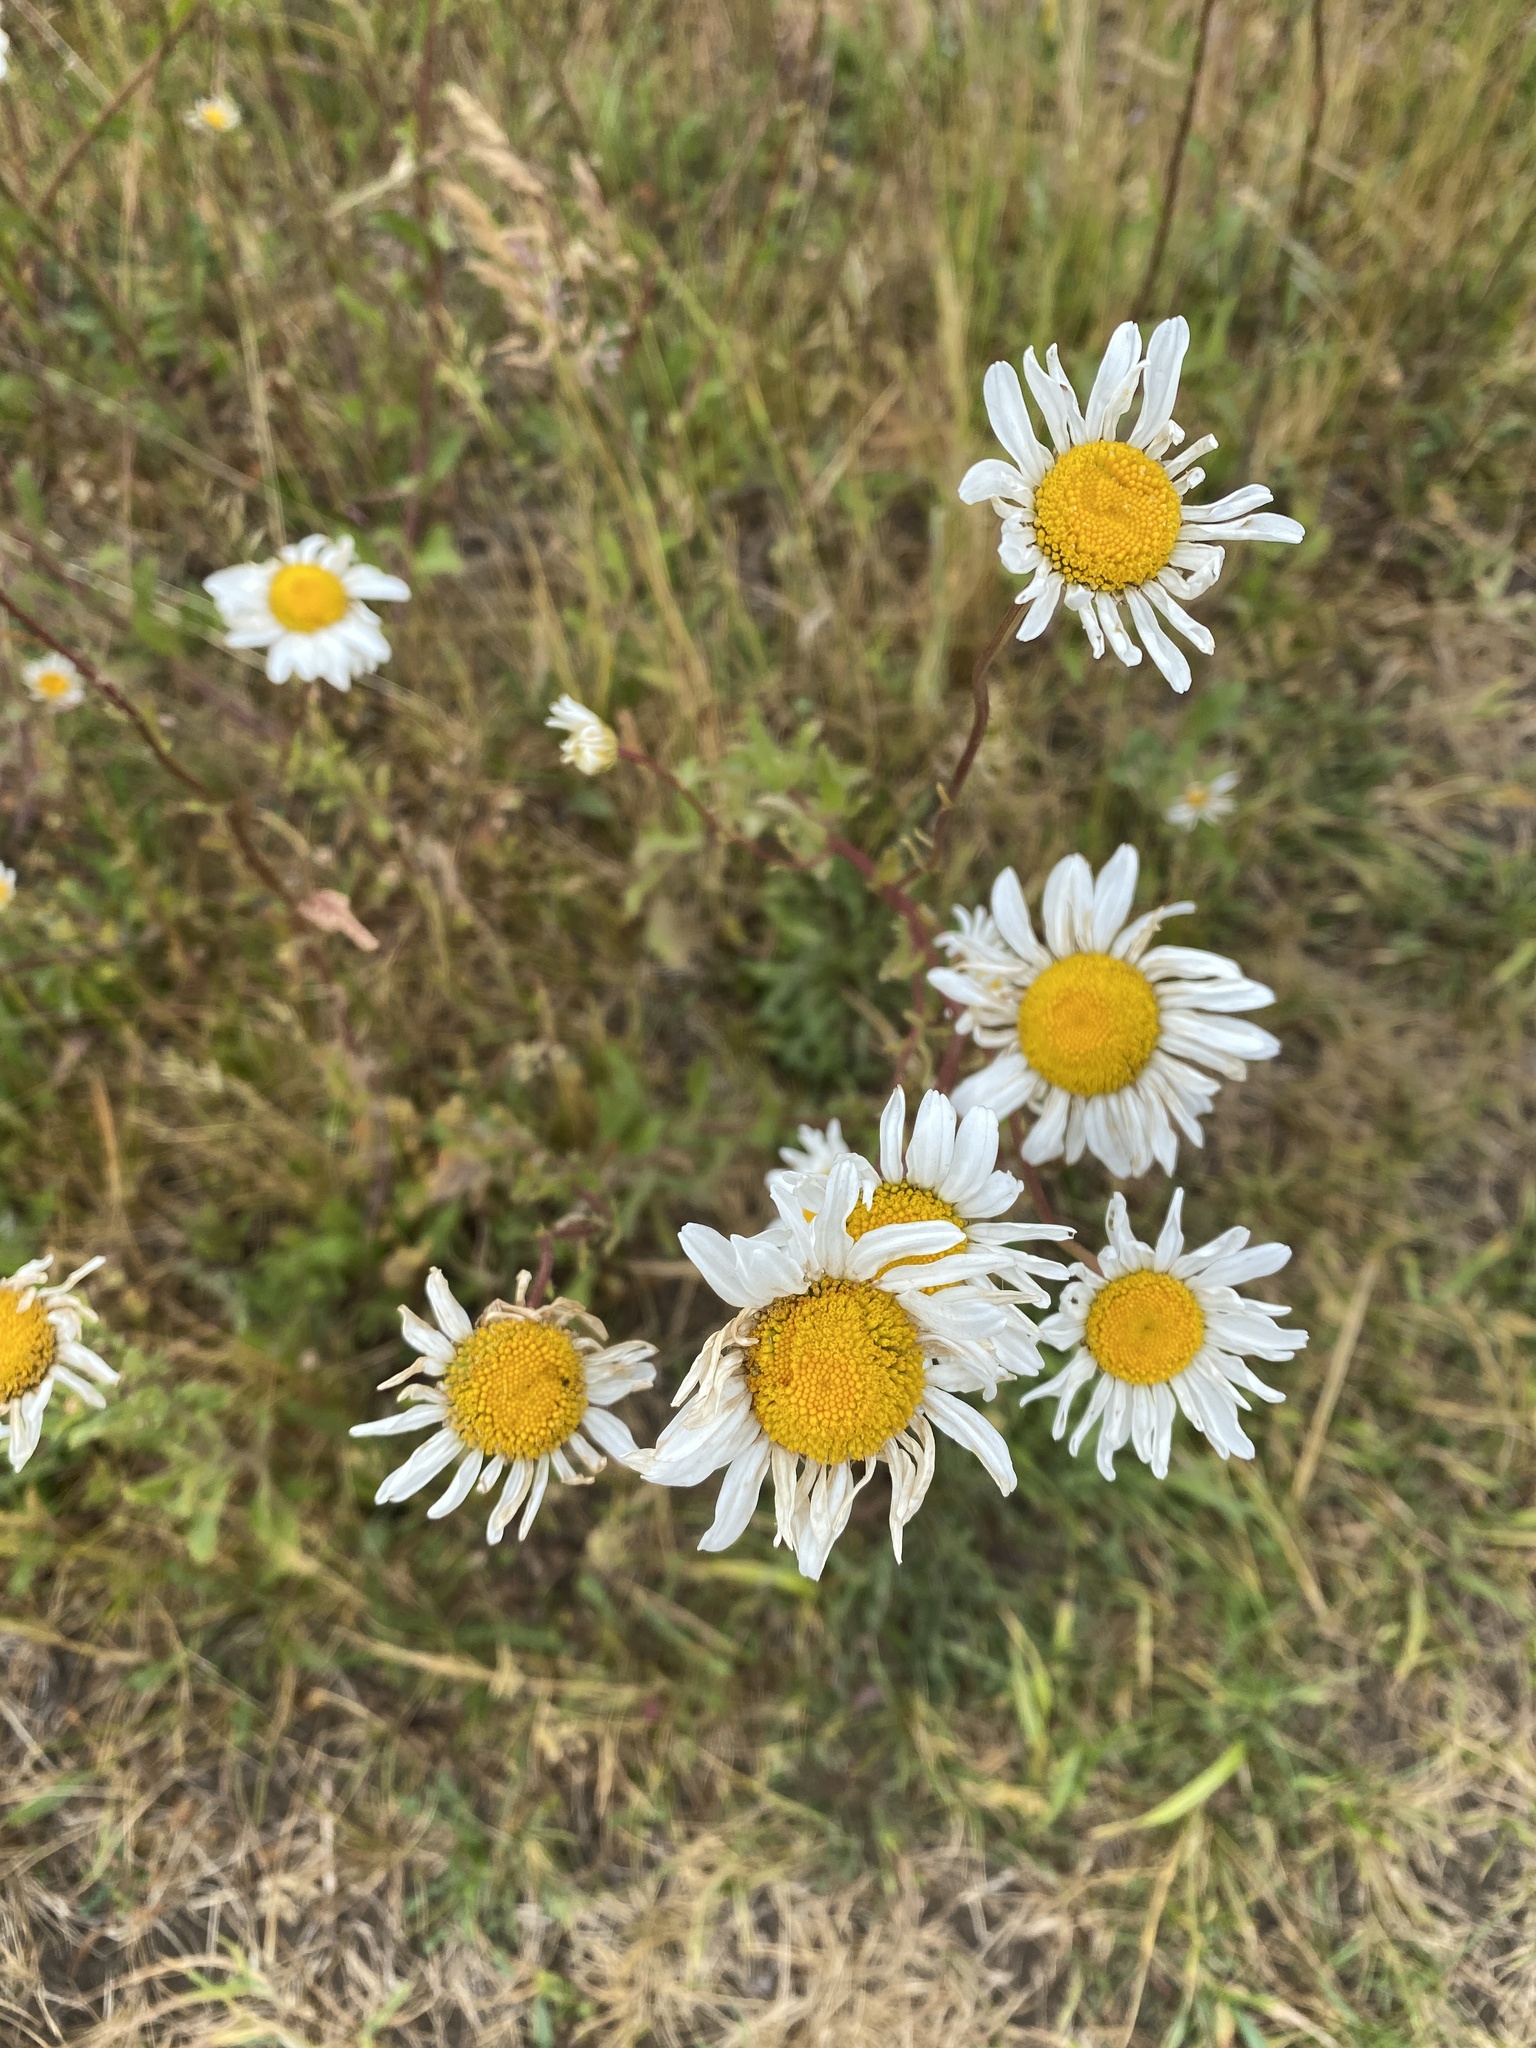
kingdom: Plantae
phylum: Tracheophyta
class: Magnoliopsida
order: Asterales
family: Asteraceae
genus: Leucanthemum
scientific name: Leucanthemum vulgare
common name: Oxeye daisy
